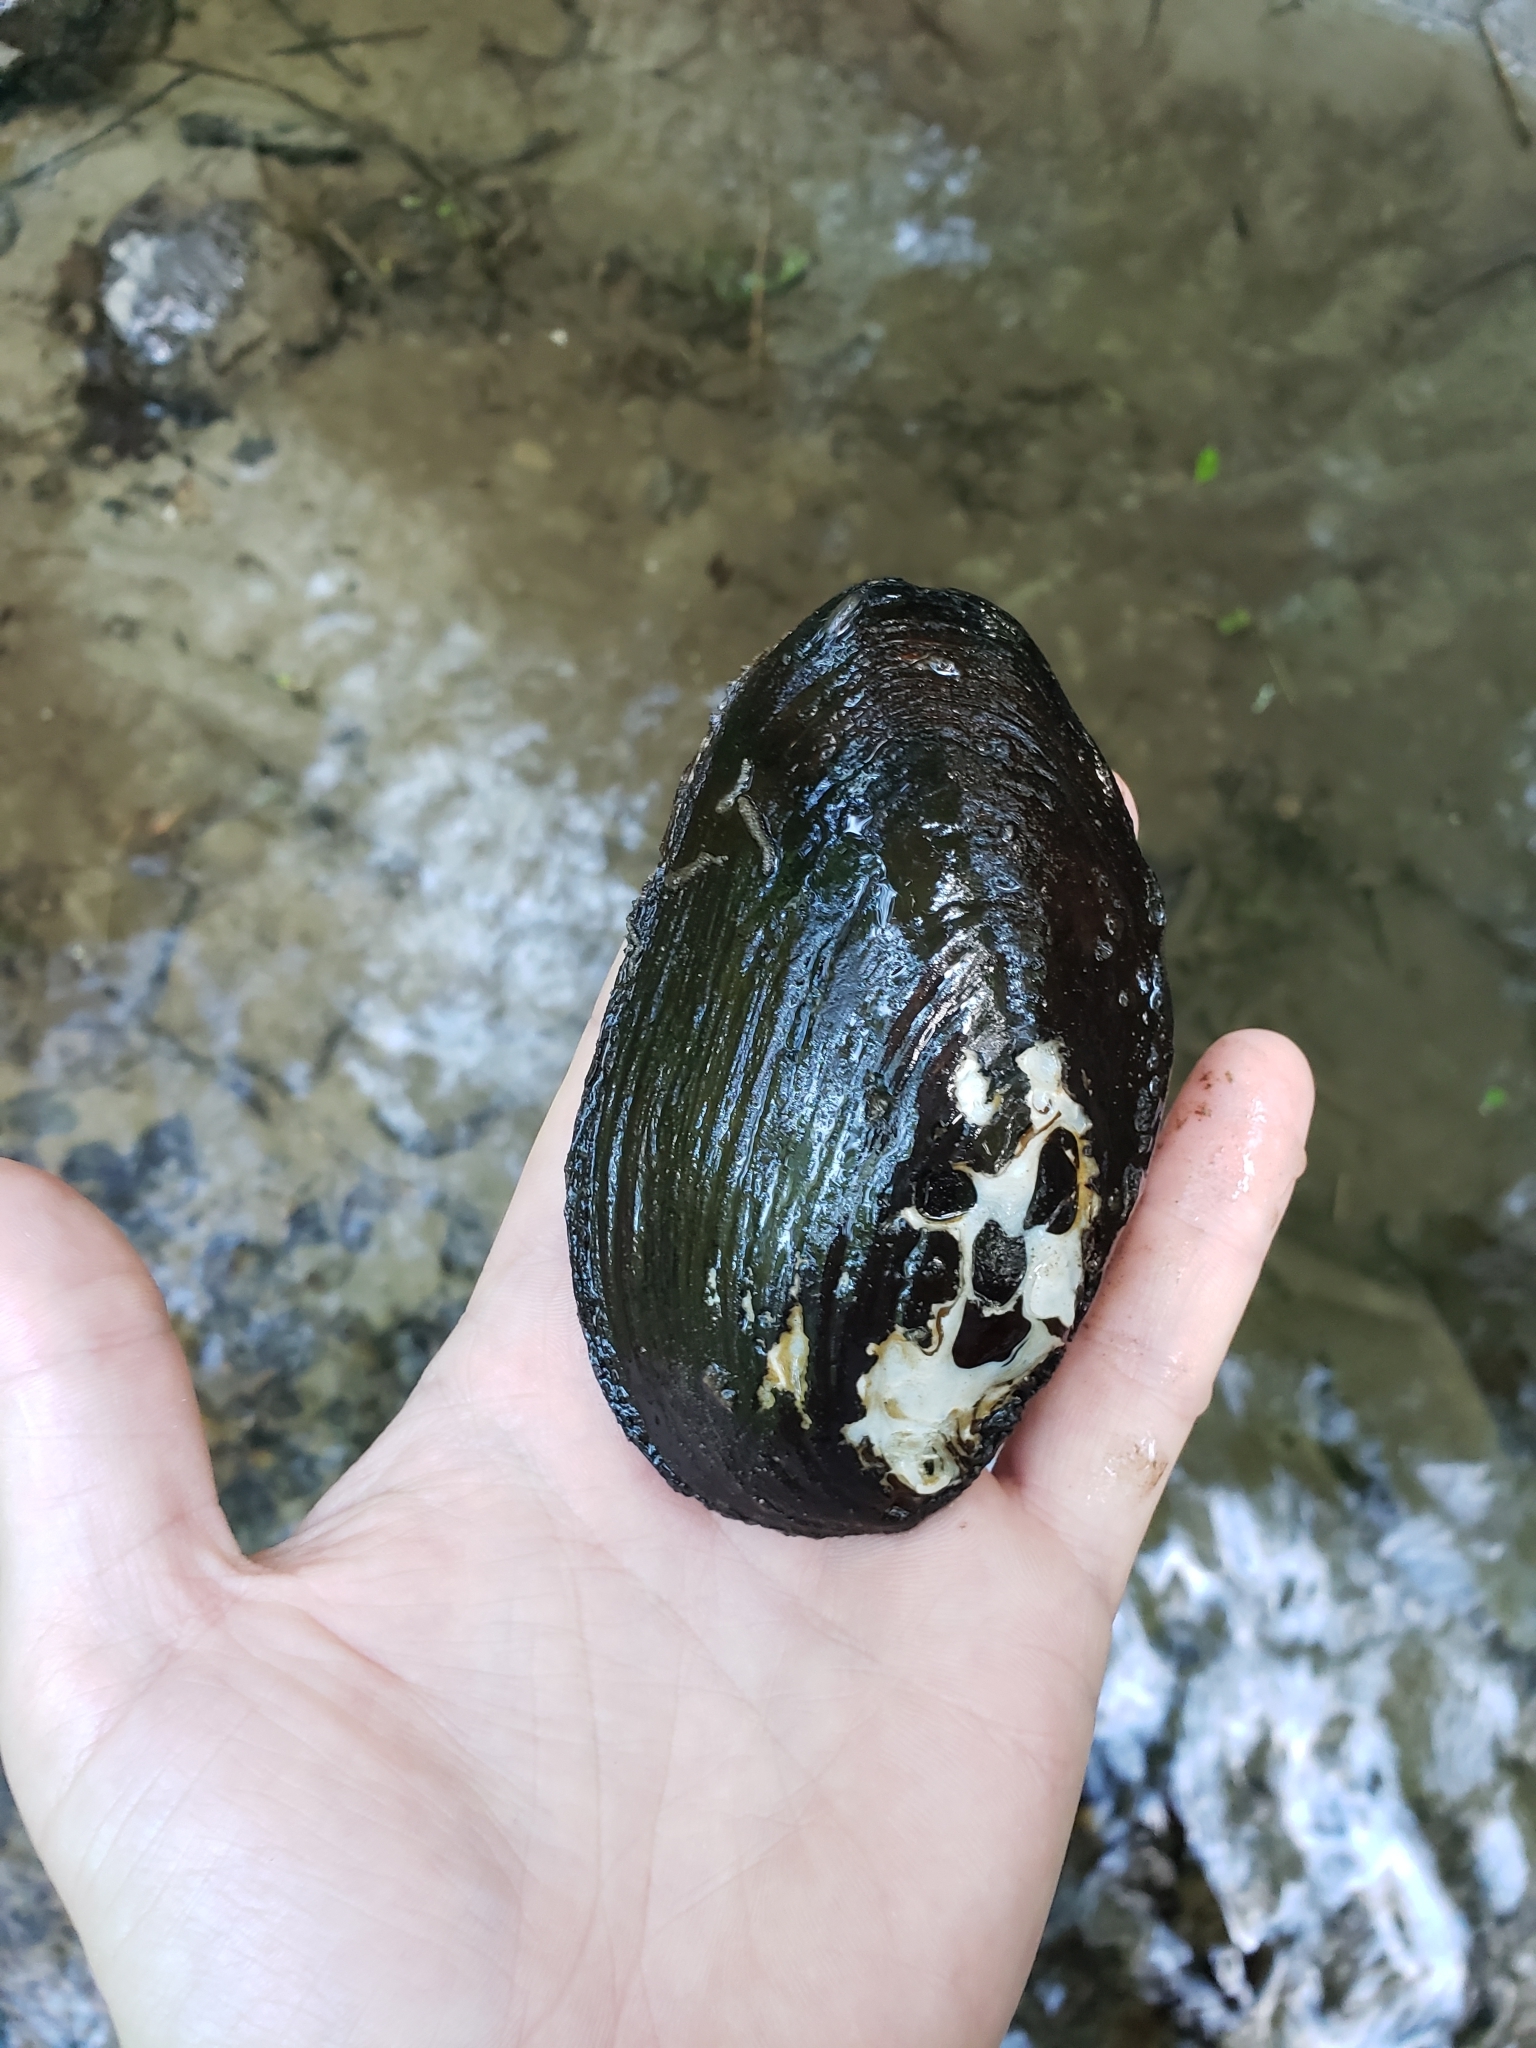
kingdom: Animalia
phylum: Mollusca
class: Bivalvia
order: Unionida
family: Unionidae
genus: Elliptio
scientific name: Elliptio complanata
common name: Eastern elliptio
